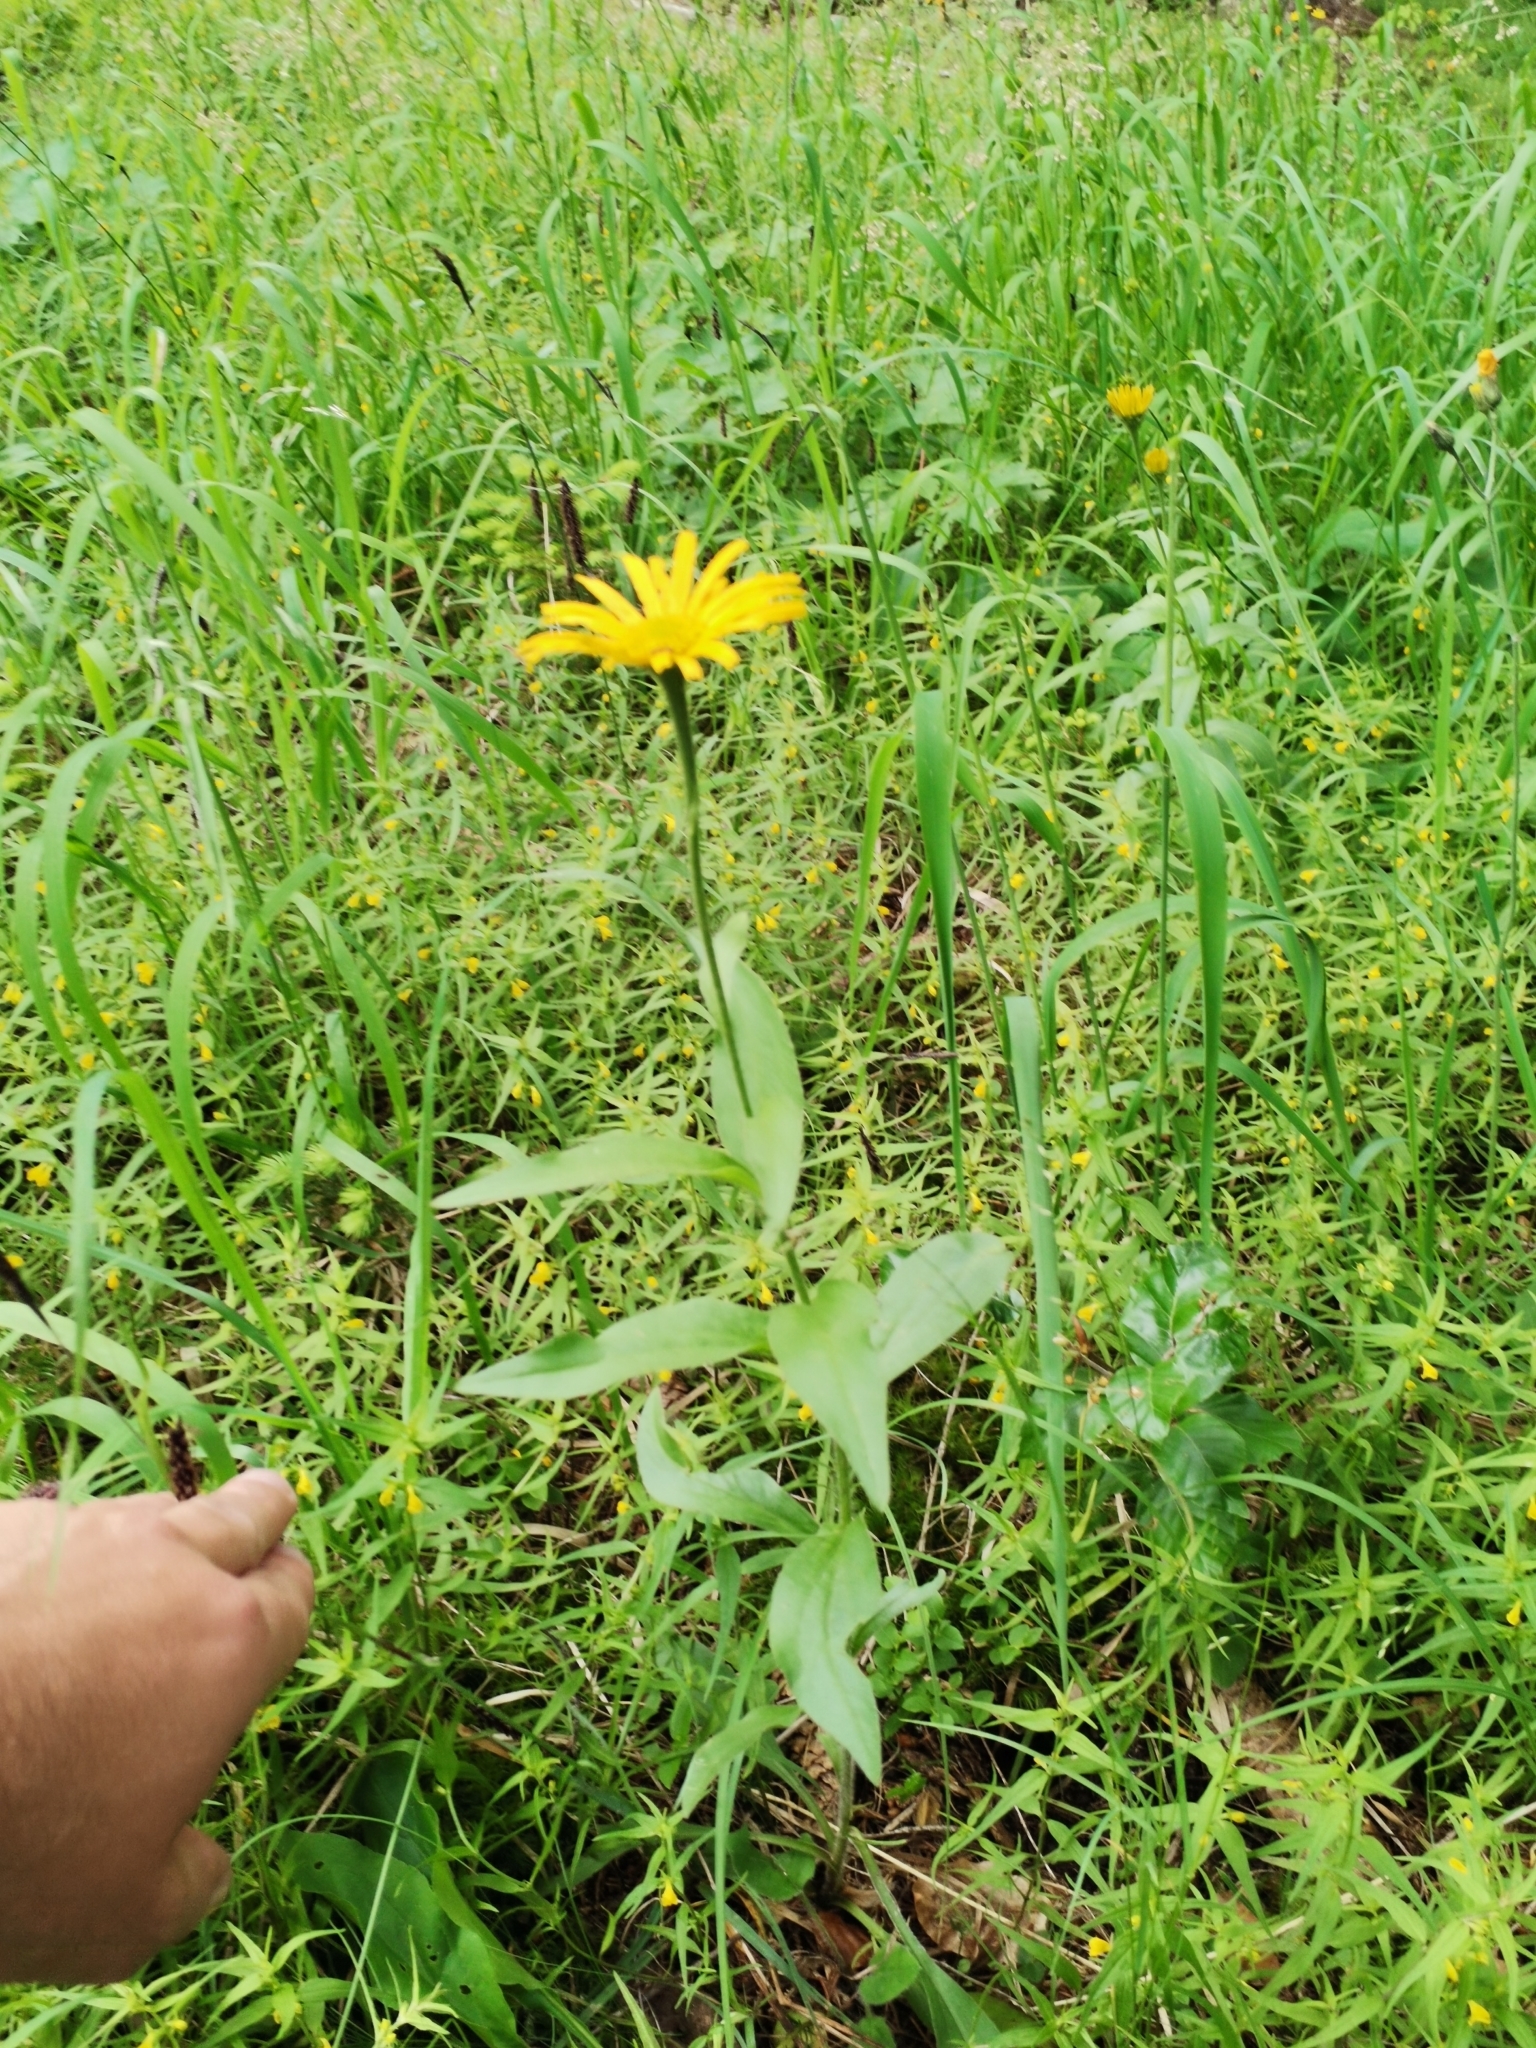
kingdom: Plantae
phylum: Tracheophyta
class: Magnoliopsida
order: Asterales
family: Asteraceae
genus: Buphthalmum
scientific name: Buphthalmum salicifolium
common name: Willow-leaved yellow-oxeye
